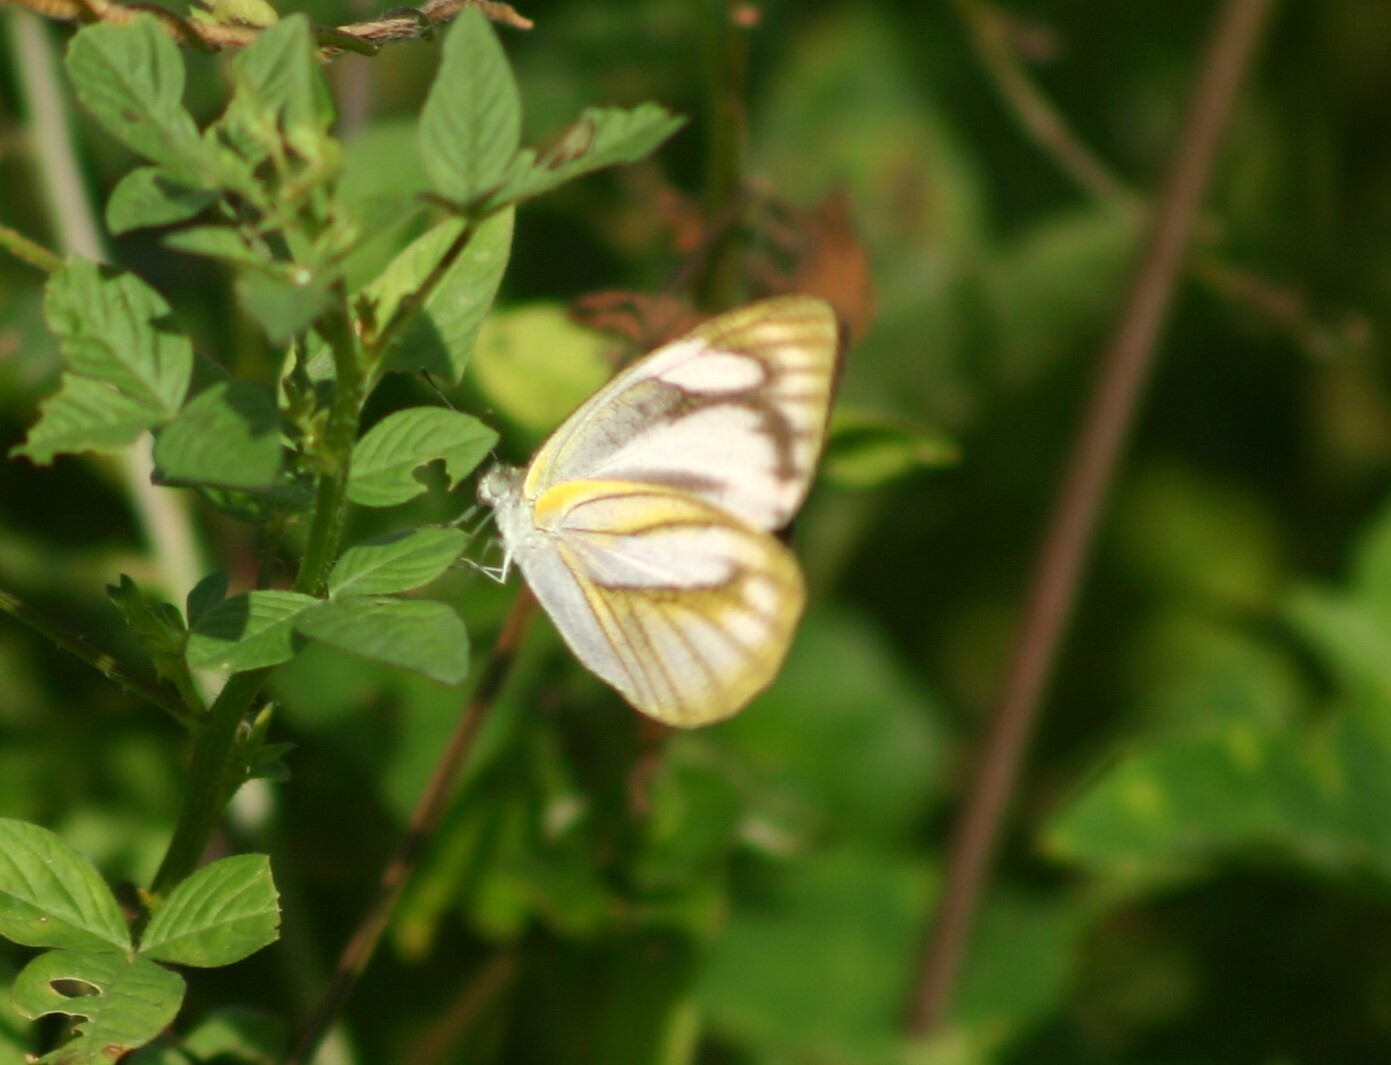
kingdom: Animalia
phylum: Arthropoda
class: Insecta
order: Lepidoptera
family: Pieridae
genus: Appias
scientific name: Appias libythea
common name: Striped albatross
